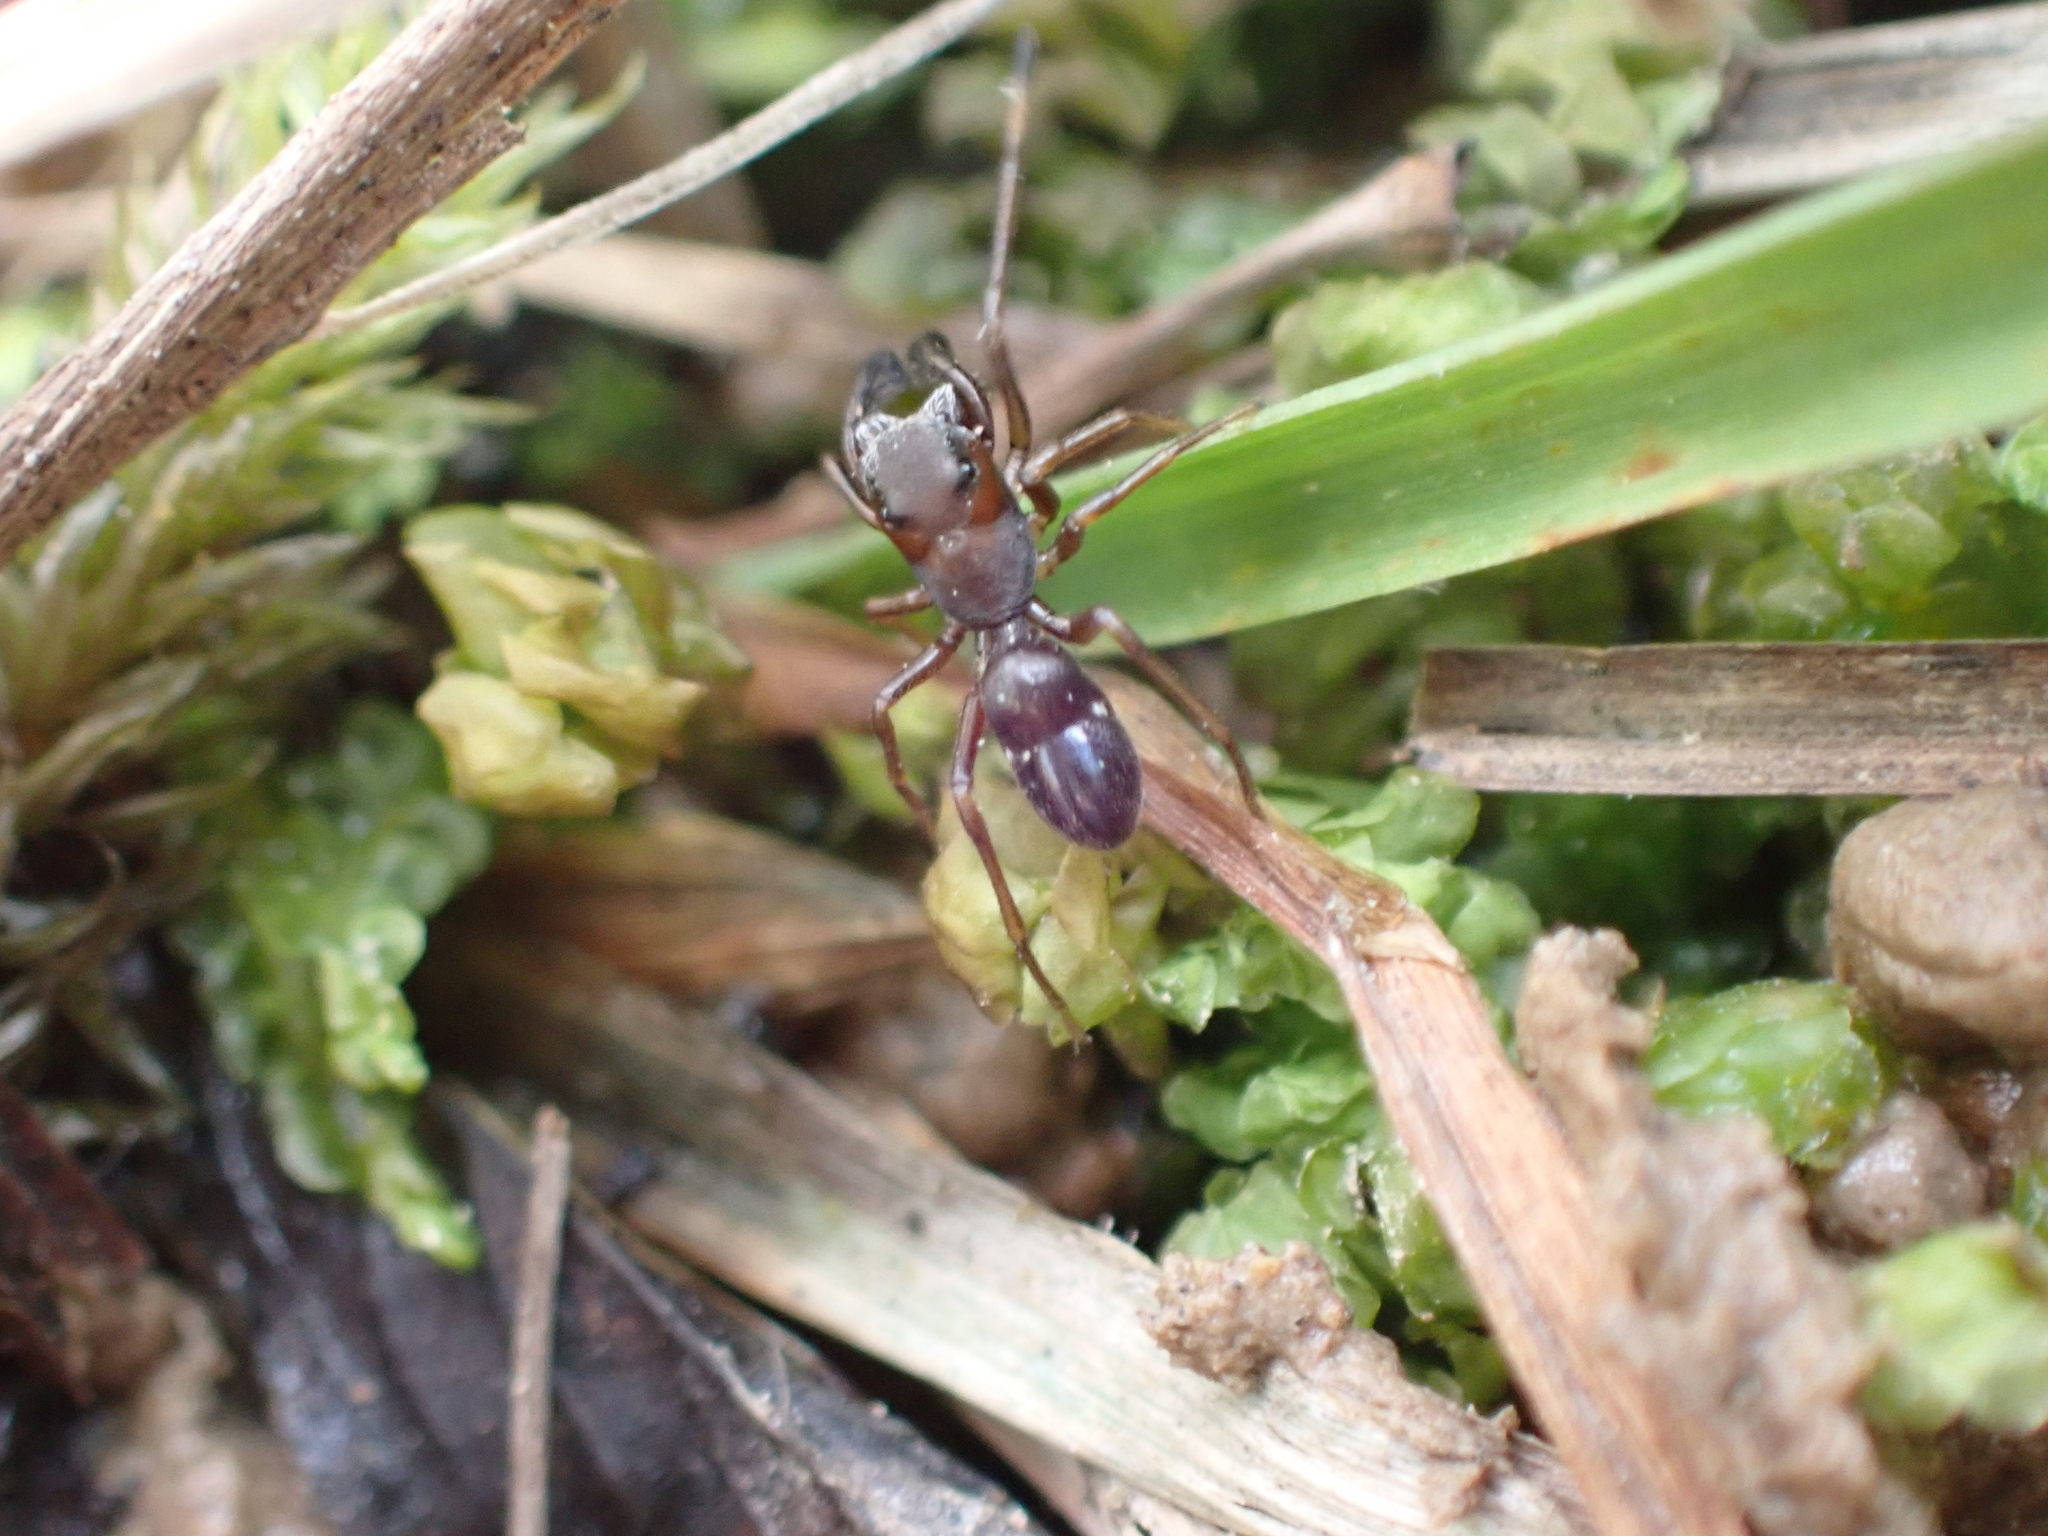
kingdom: Animalia
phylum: Arthropoda
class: Arachnida
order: Araneae
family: Salticidae
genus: Sarinda
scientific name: Sarinda hentzi
